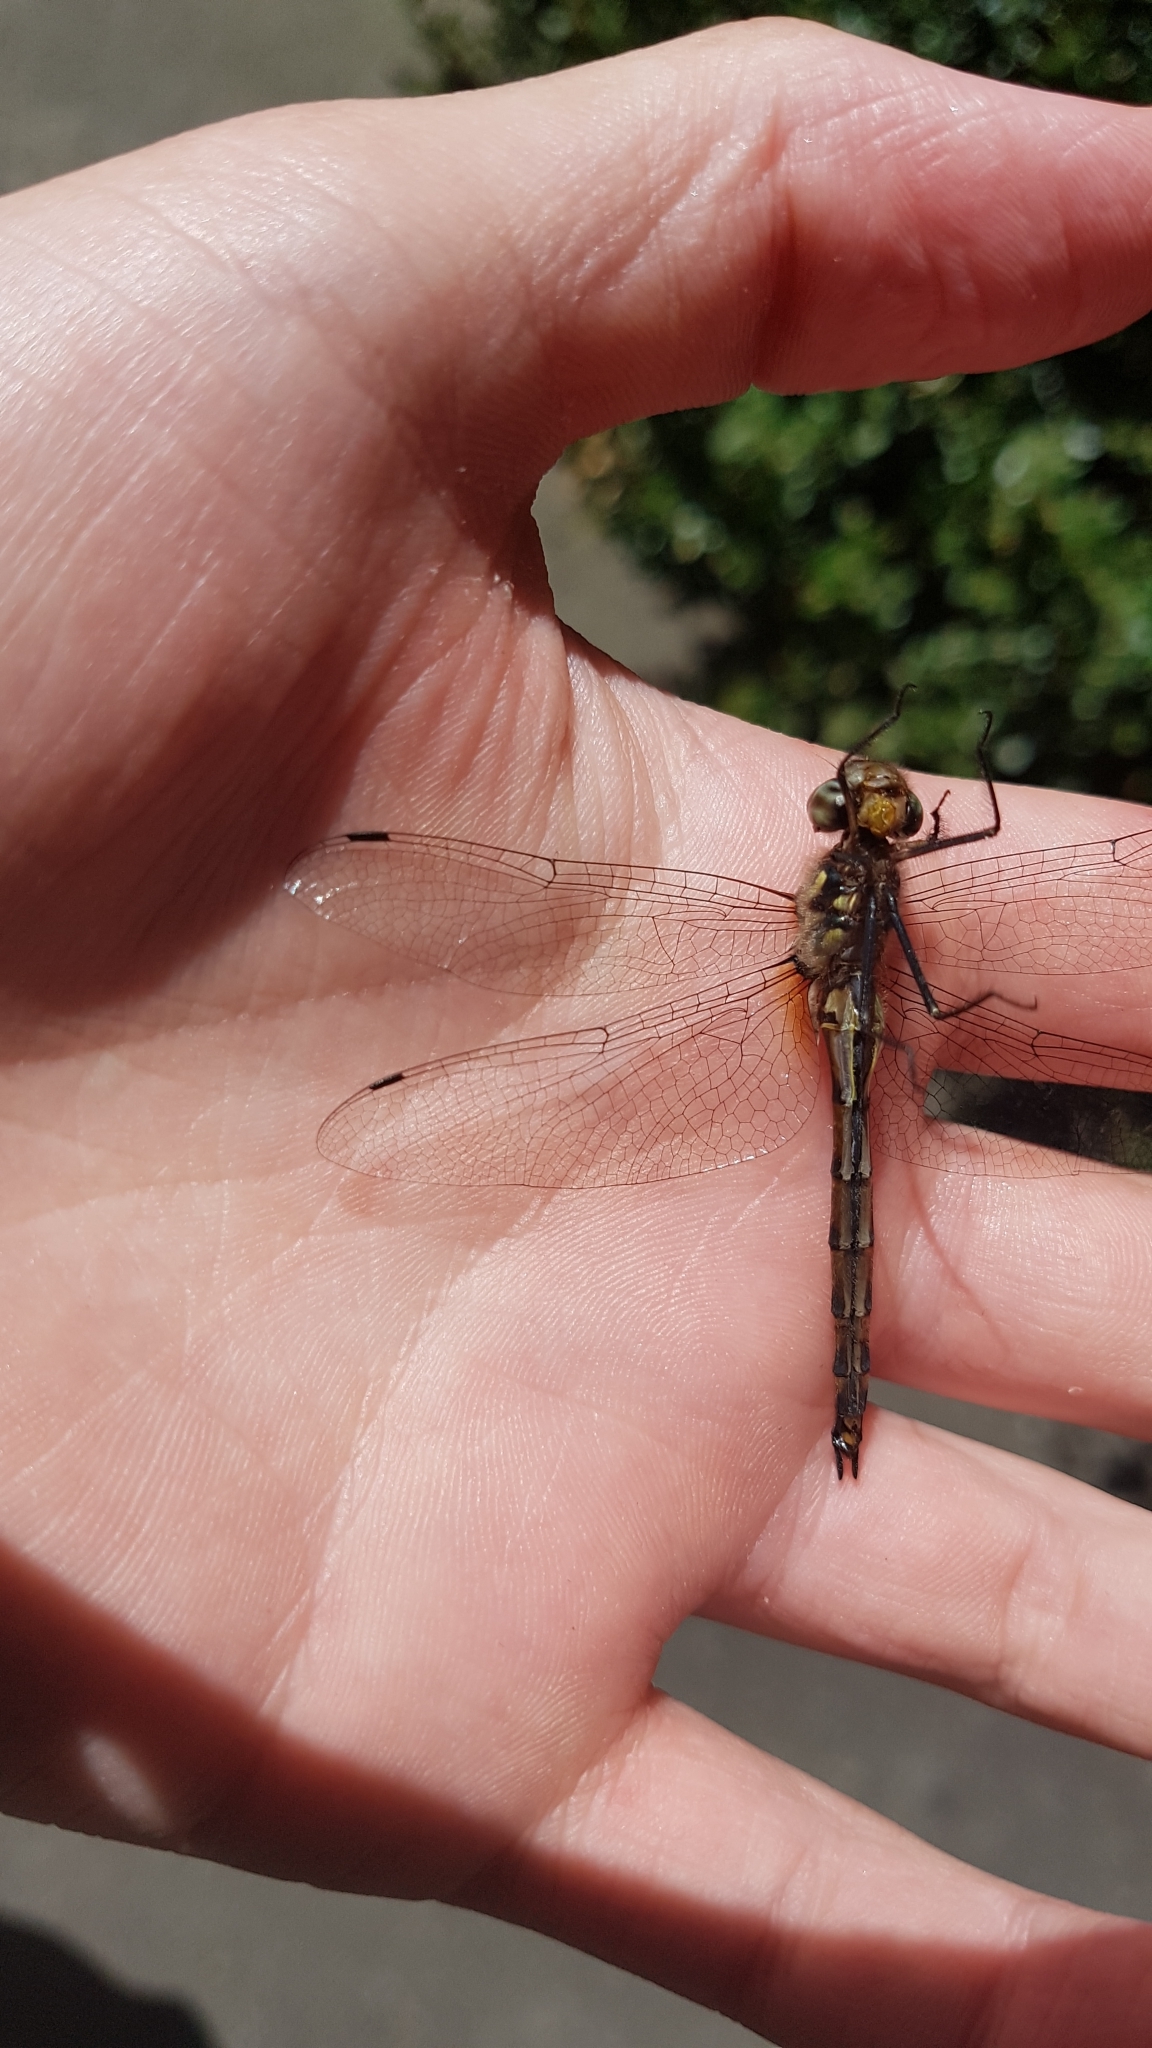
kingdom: Animalia
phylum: Arthropoda
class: Insecta
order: Odonata
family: Corduliidae
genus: Hemicordulia
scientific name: Hemicordulia australiae
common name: Sentry dragonfly
